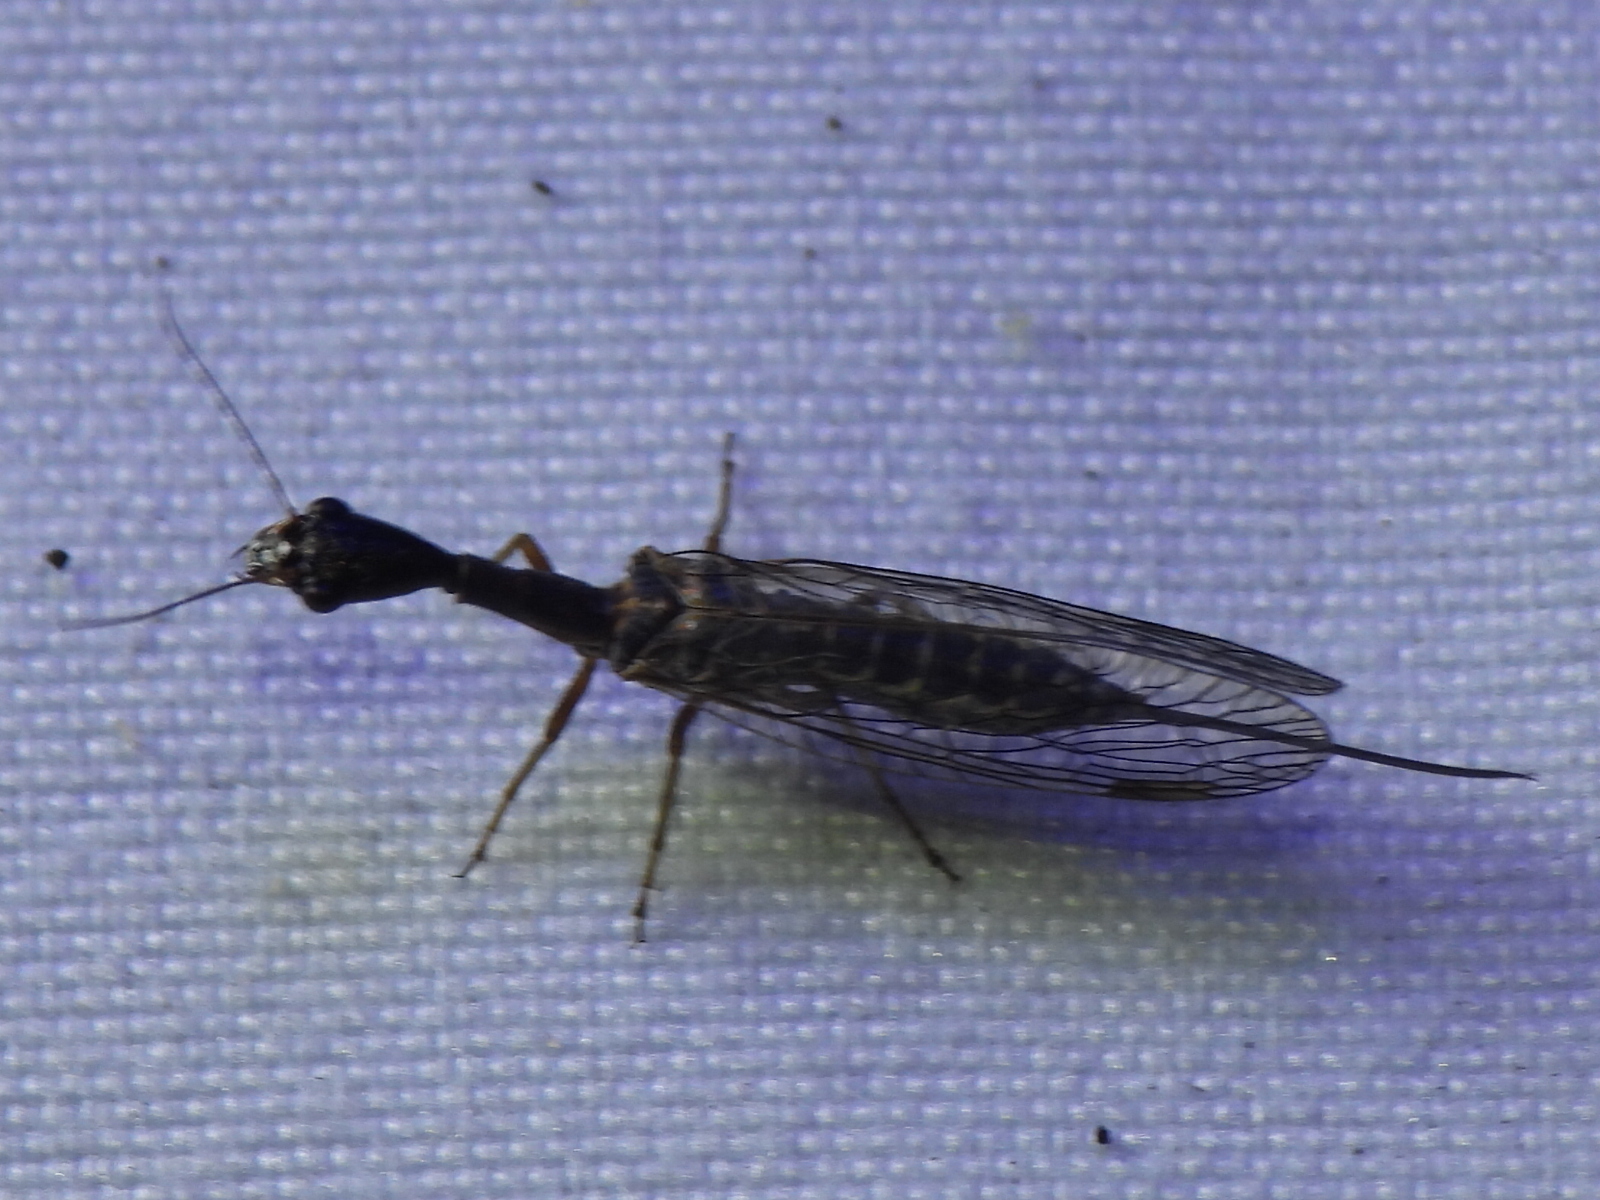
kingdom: Animalia
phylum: Arthropoda
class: Insecta
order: Raphidioptera
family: Raphidiidae
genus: Agulla
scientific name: Agulla bicolor
